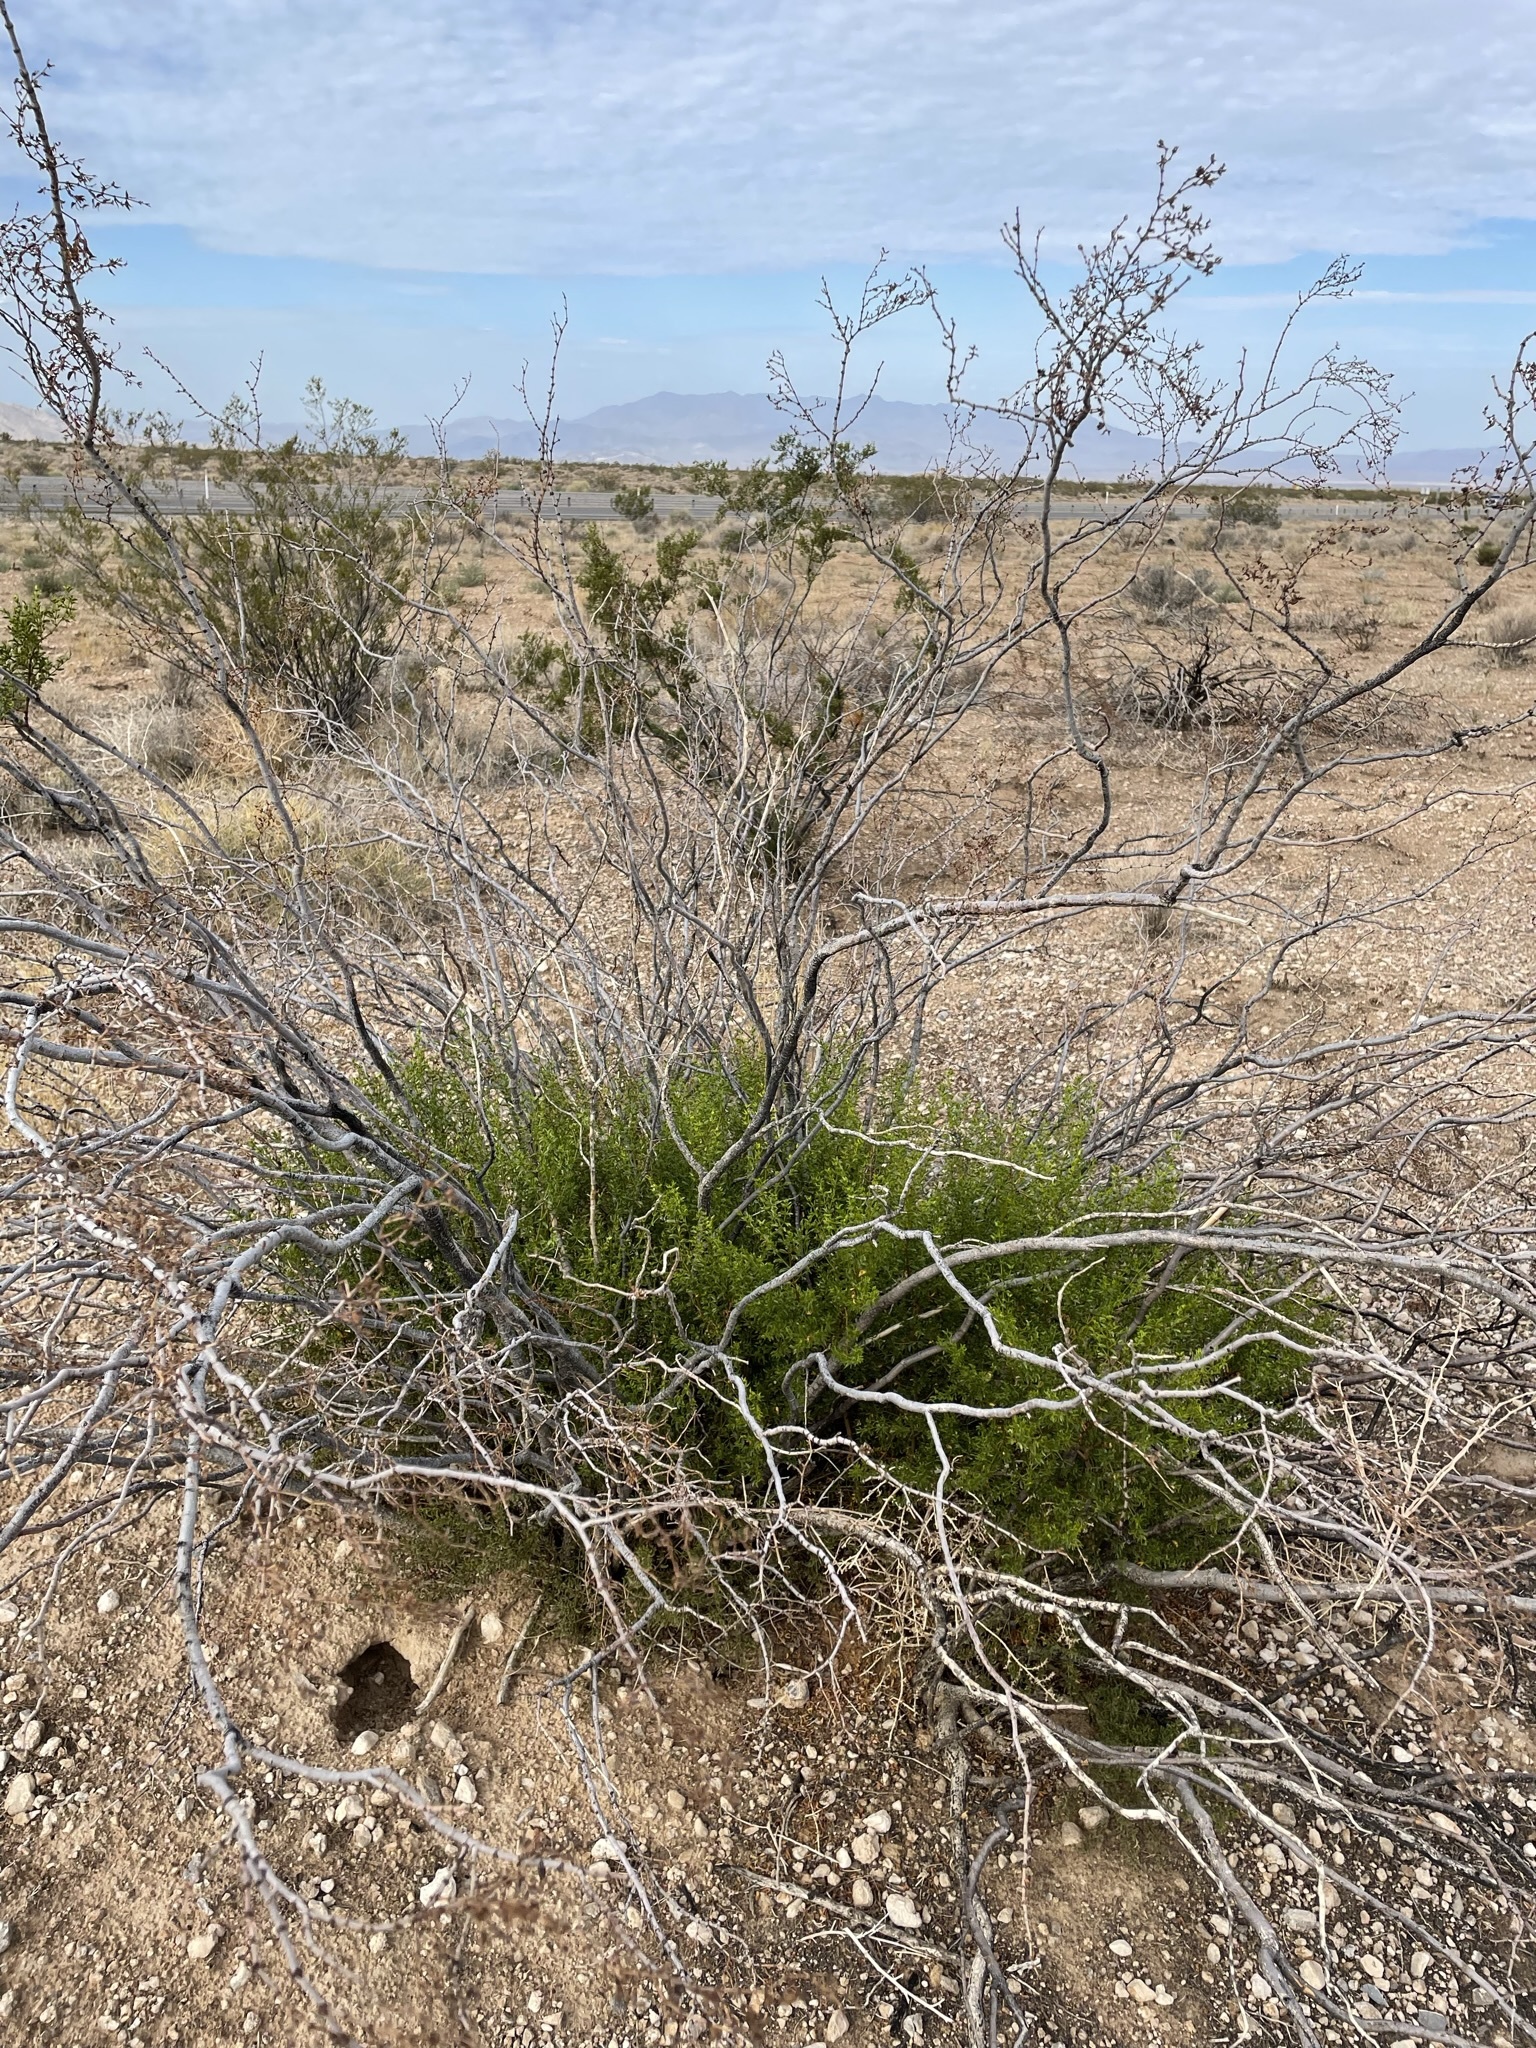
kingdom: Plantae
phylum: Tracheophyta
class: Magnoliopsida
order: Zygophyllales
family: Zygophyllaceae
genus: Larrea
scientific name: Larrea tridentata
